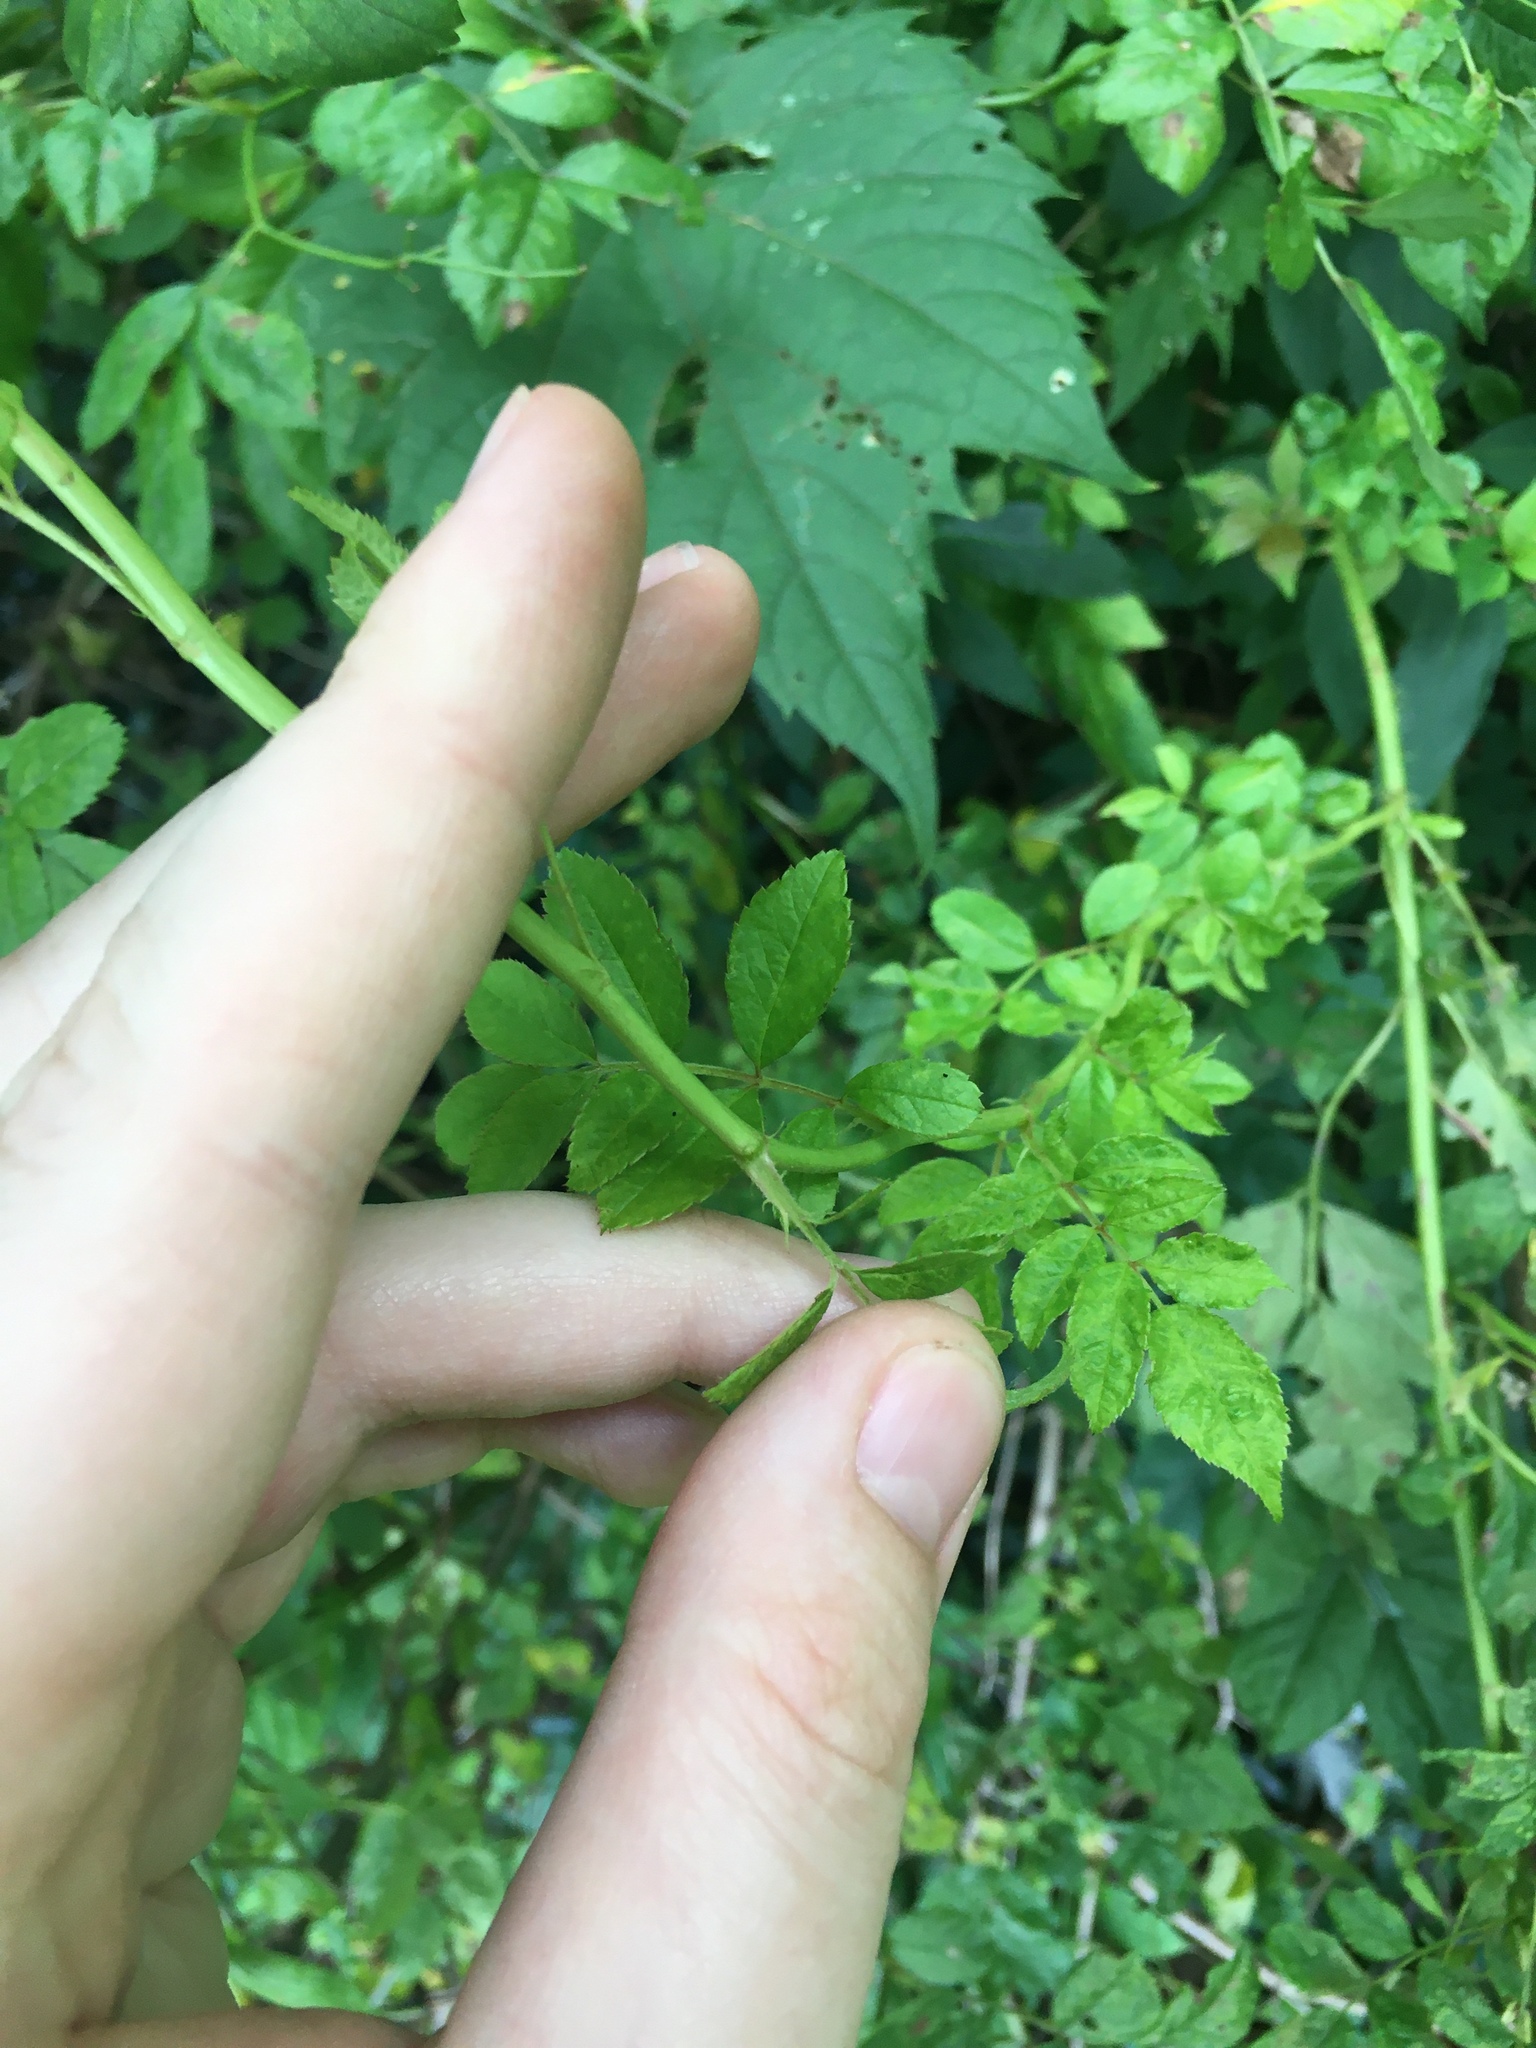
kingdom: Plantae
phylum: Tracheophyta
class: Magnoliopsida
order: Rosales
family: Rosaceae
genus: Rosa
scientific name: Rosa multiflora
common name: Multiflora rose
